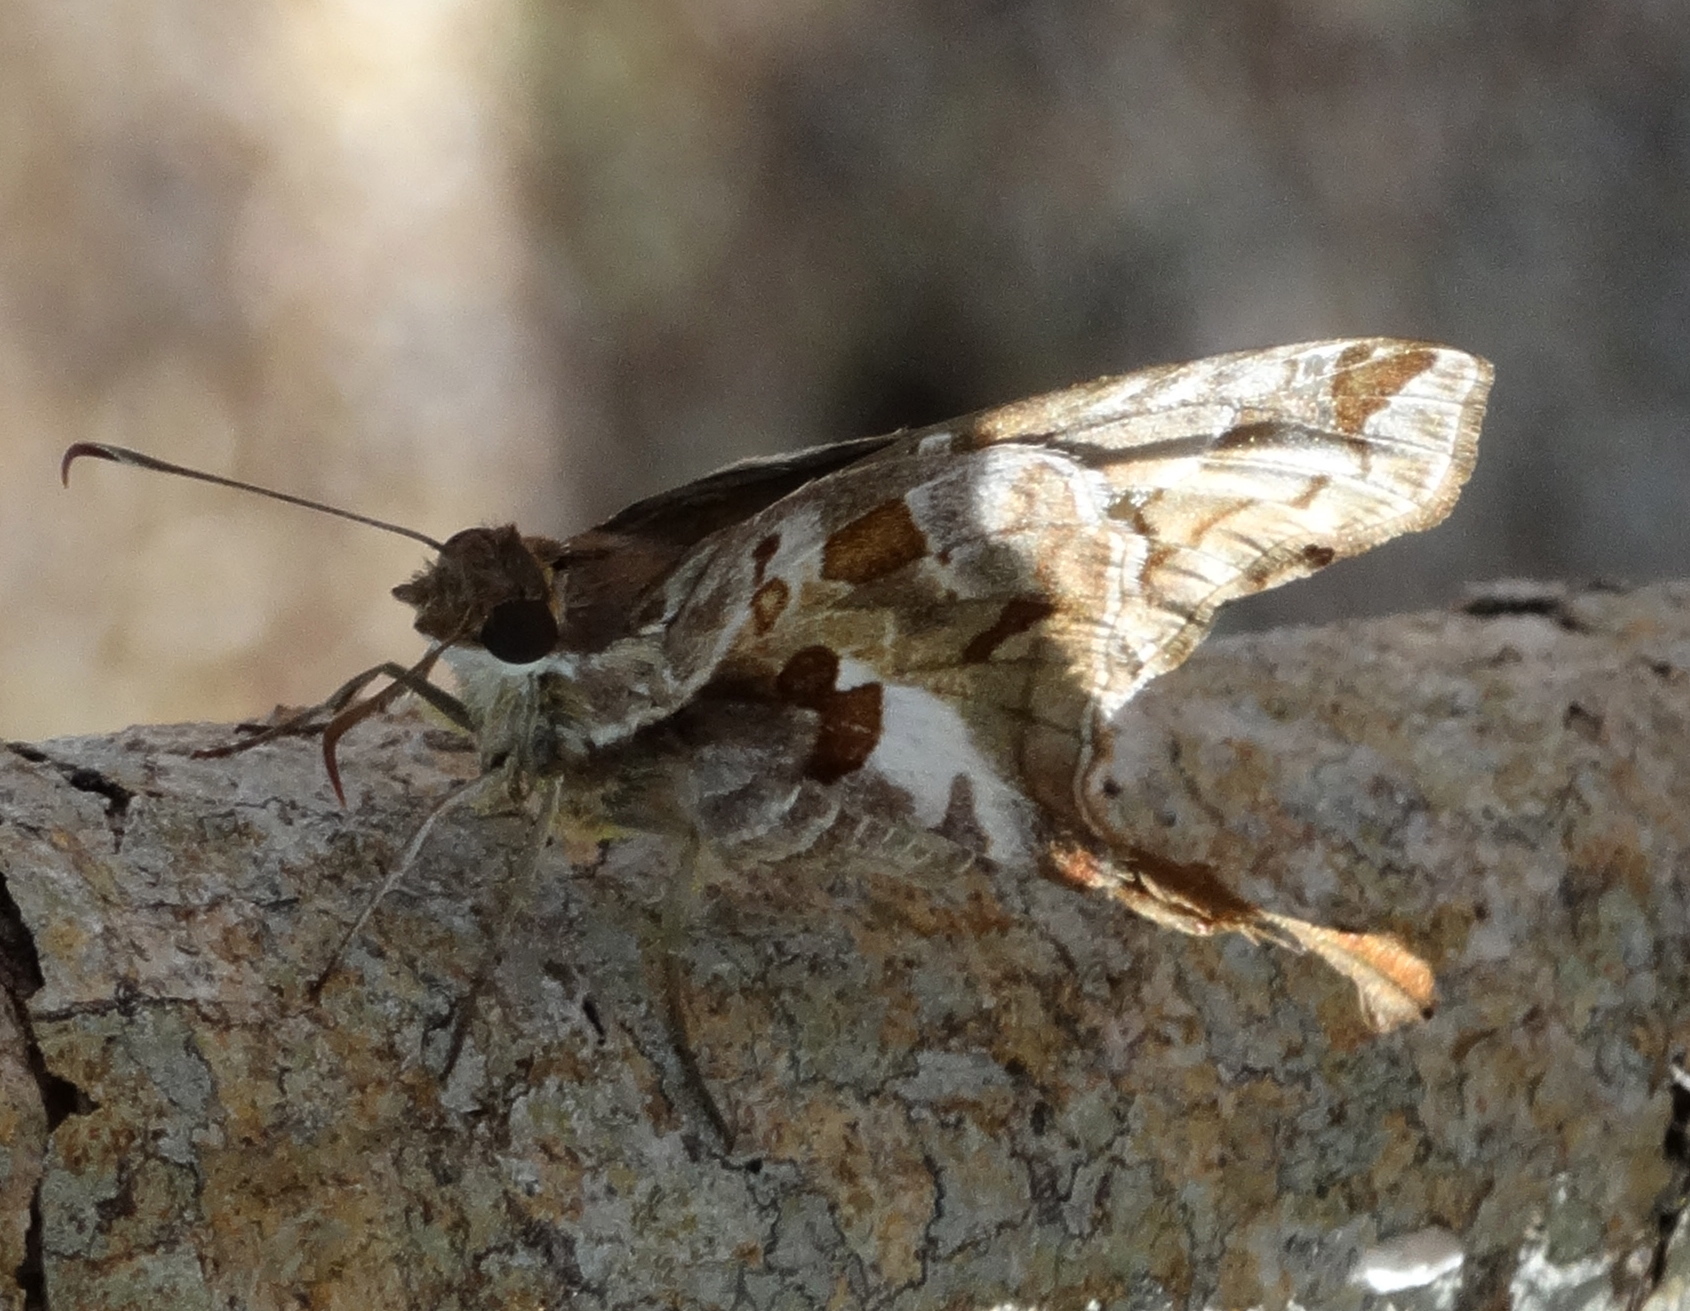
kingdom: Animalia
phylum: Arthropoda
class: Insecta
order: Lepidoptera
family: Hesperiidae
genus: Chioides
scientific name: Chioides zilpa
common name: Zilpa longtail
